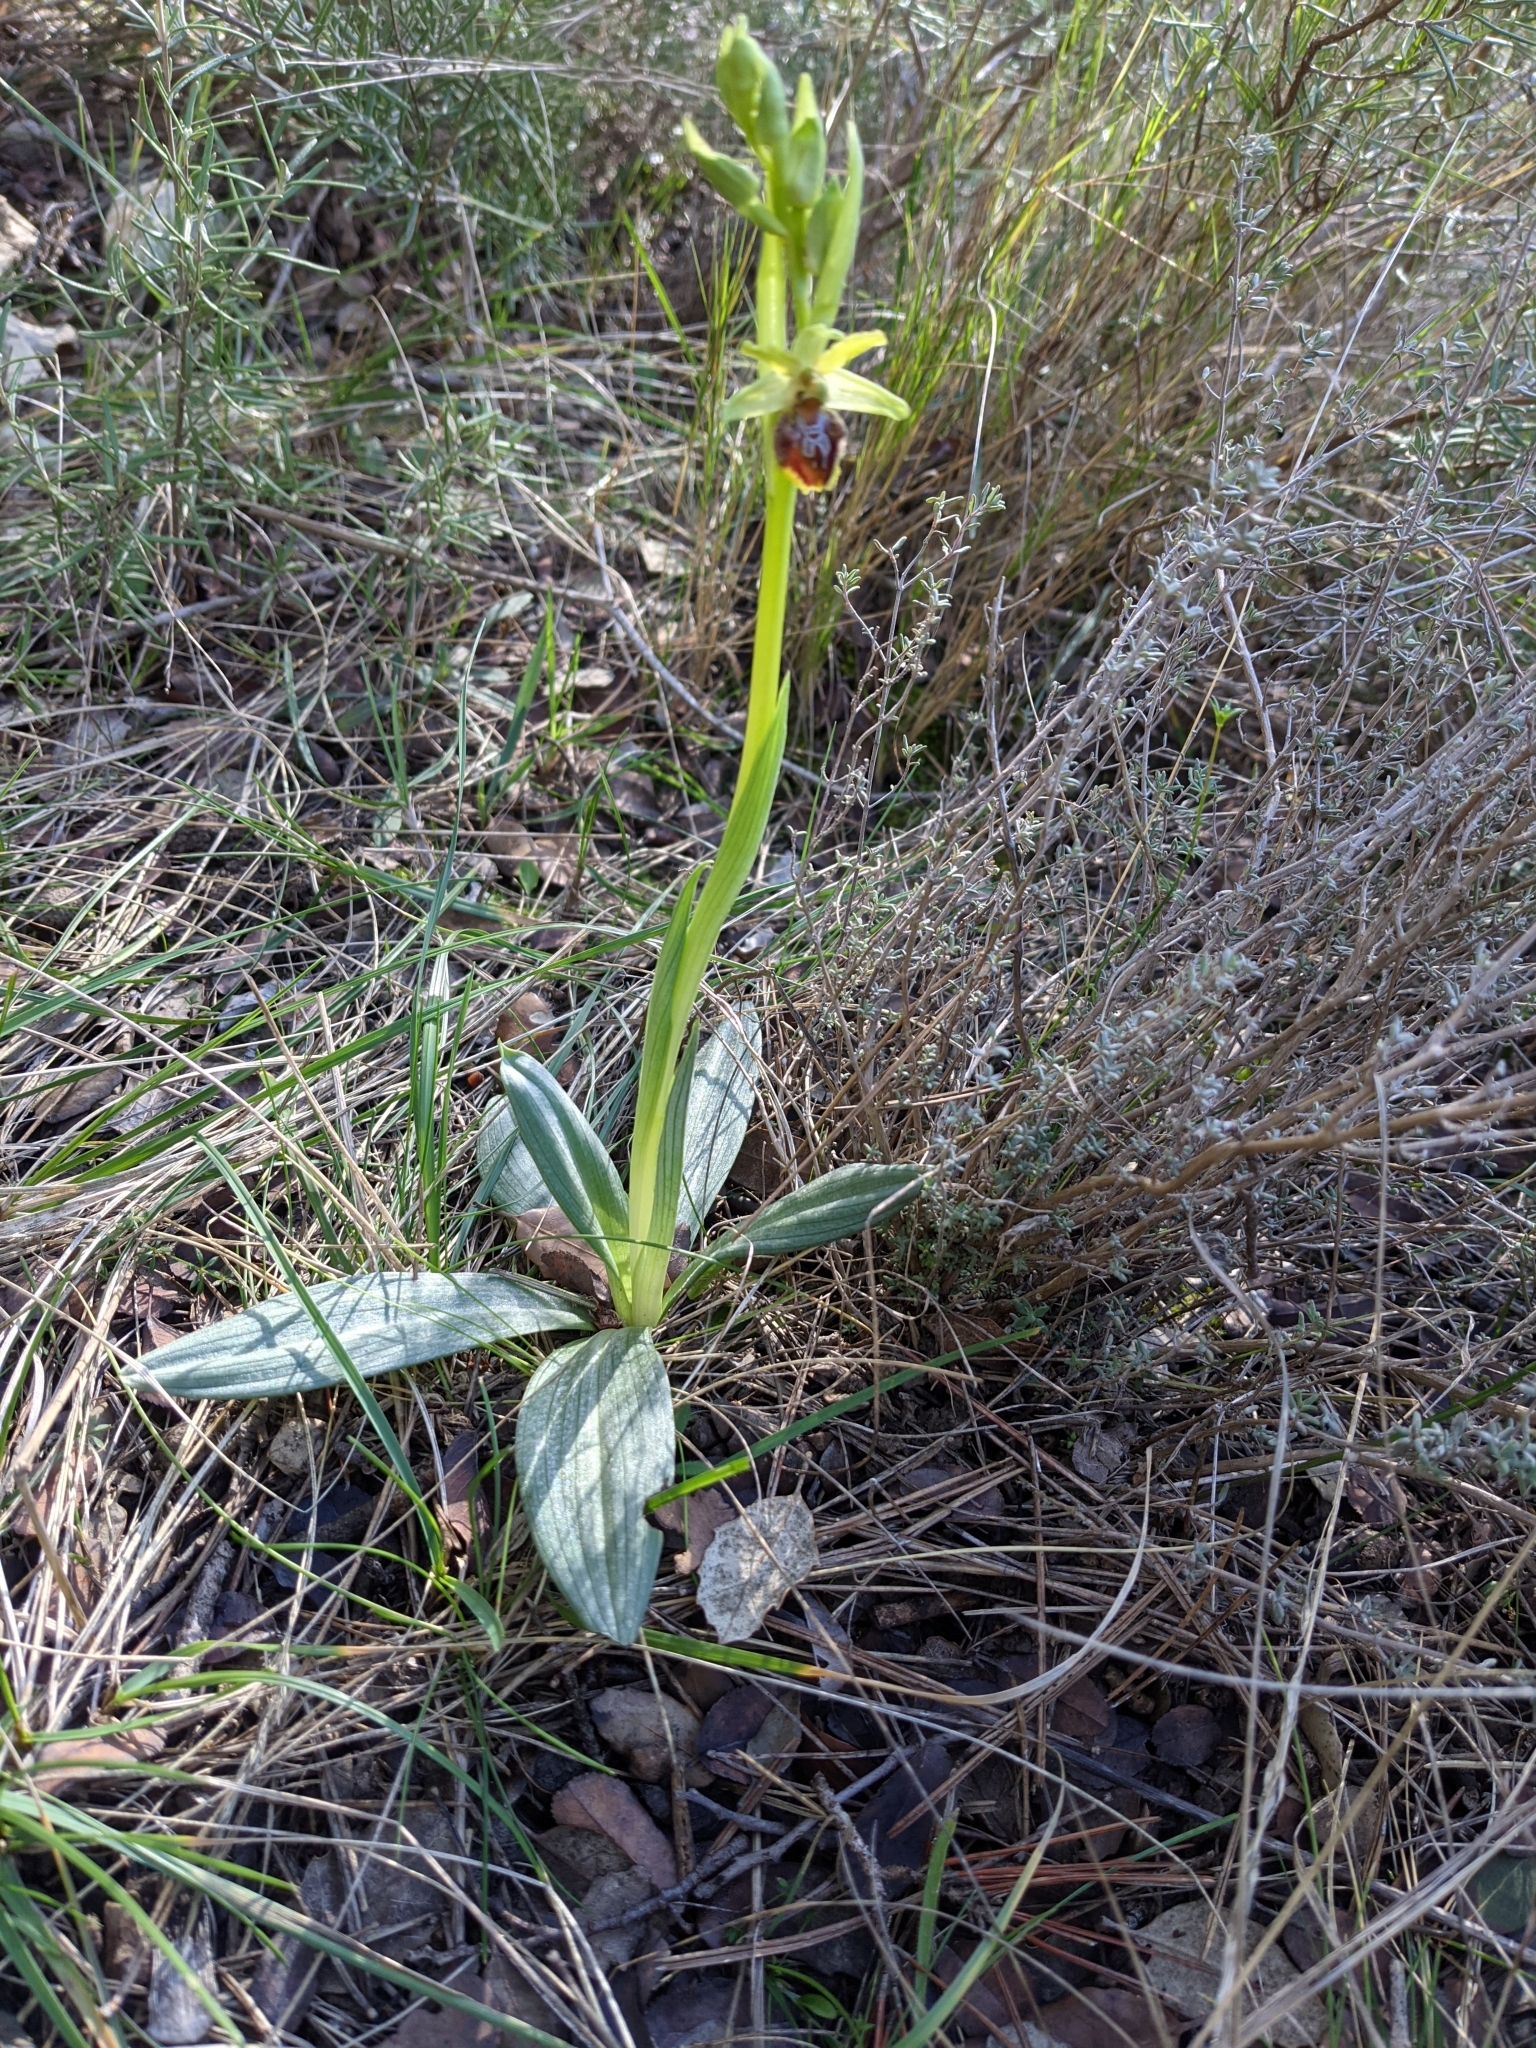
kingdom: Plantae
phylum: Tracheophyta
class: Liliopsida
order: Asparagales
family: Orchidaceae
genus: Ophrys
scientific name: Ophrys sphegodes
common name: Early spider-orchid
